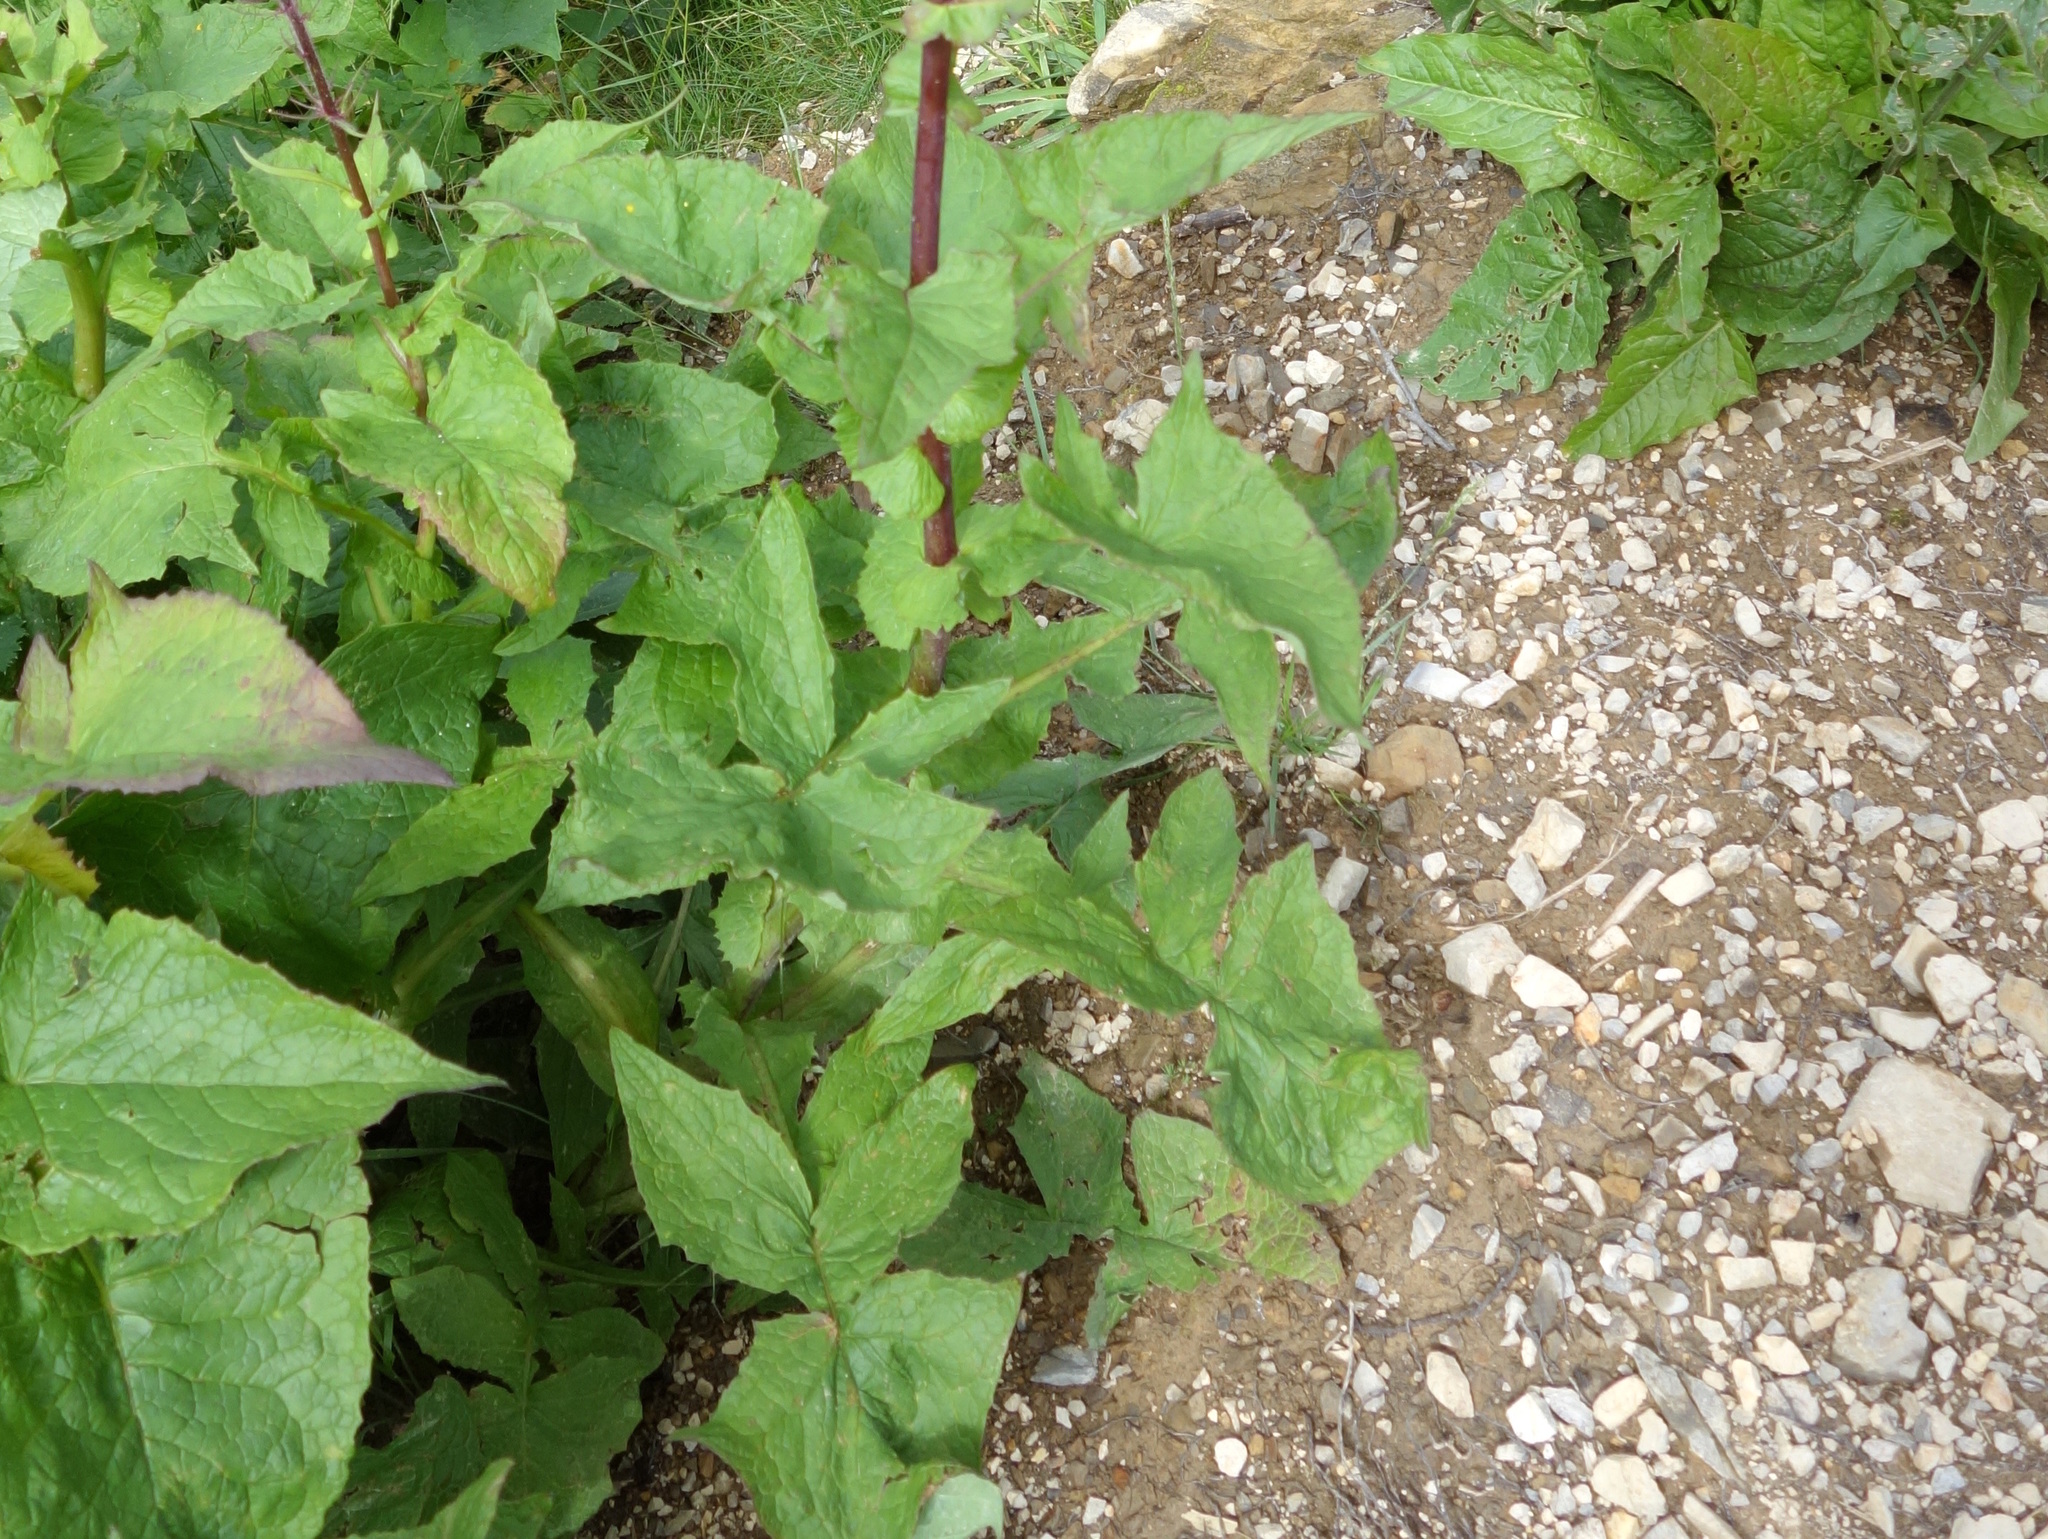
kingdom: Plantae
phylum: Tracheophyta
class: Magnoliopsida
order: Asterales
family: Asteraceae
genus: Cicerbita
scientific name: Cicerbita alpina
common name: Alpine blue-sow-thistle
